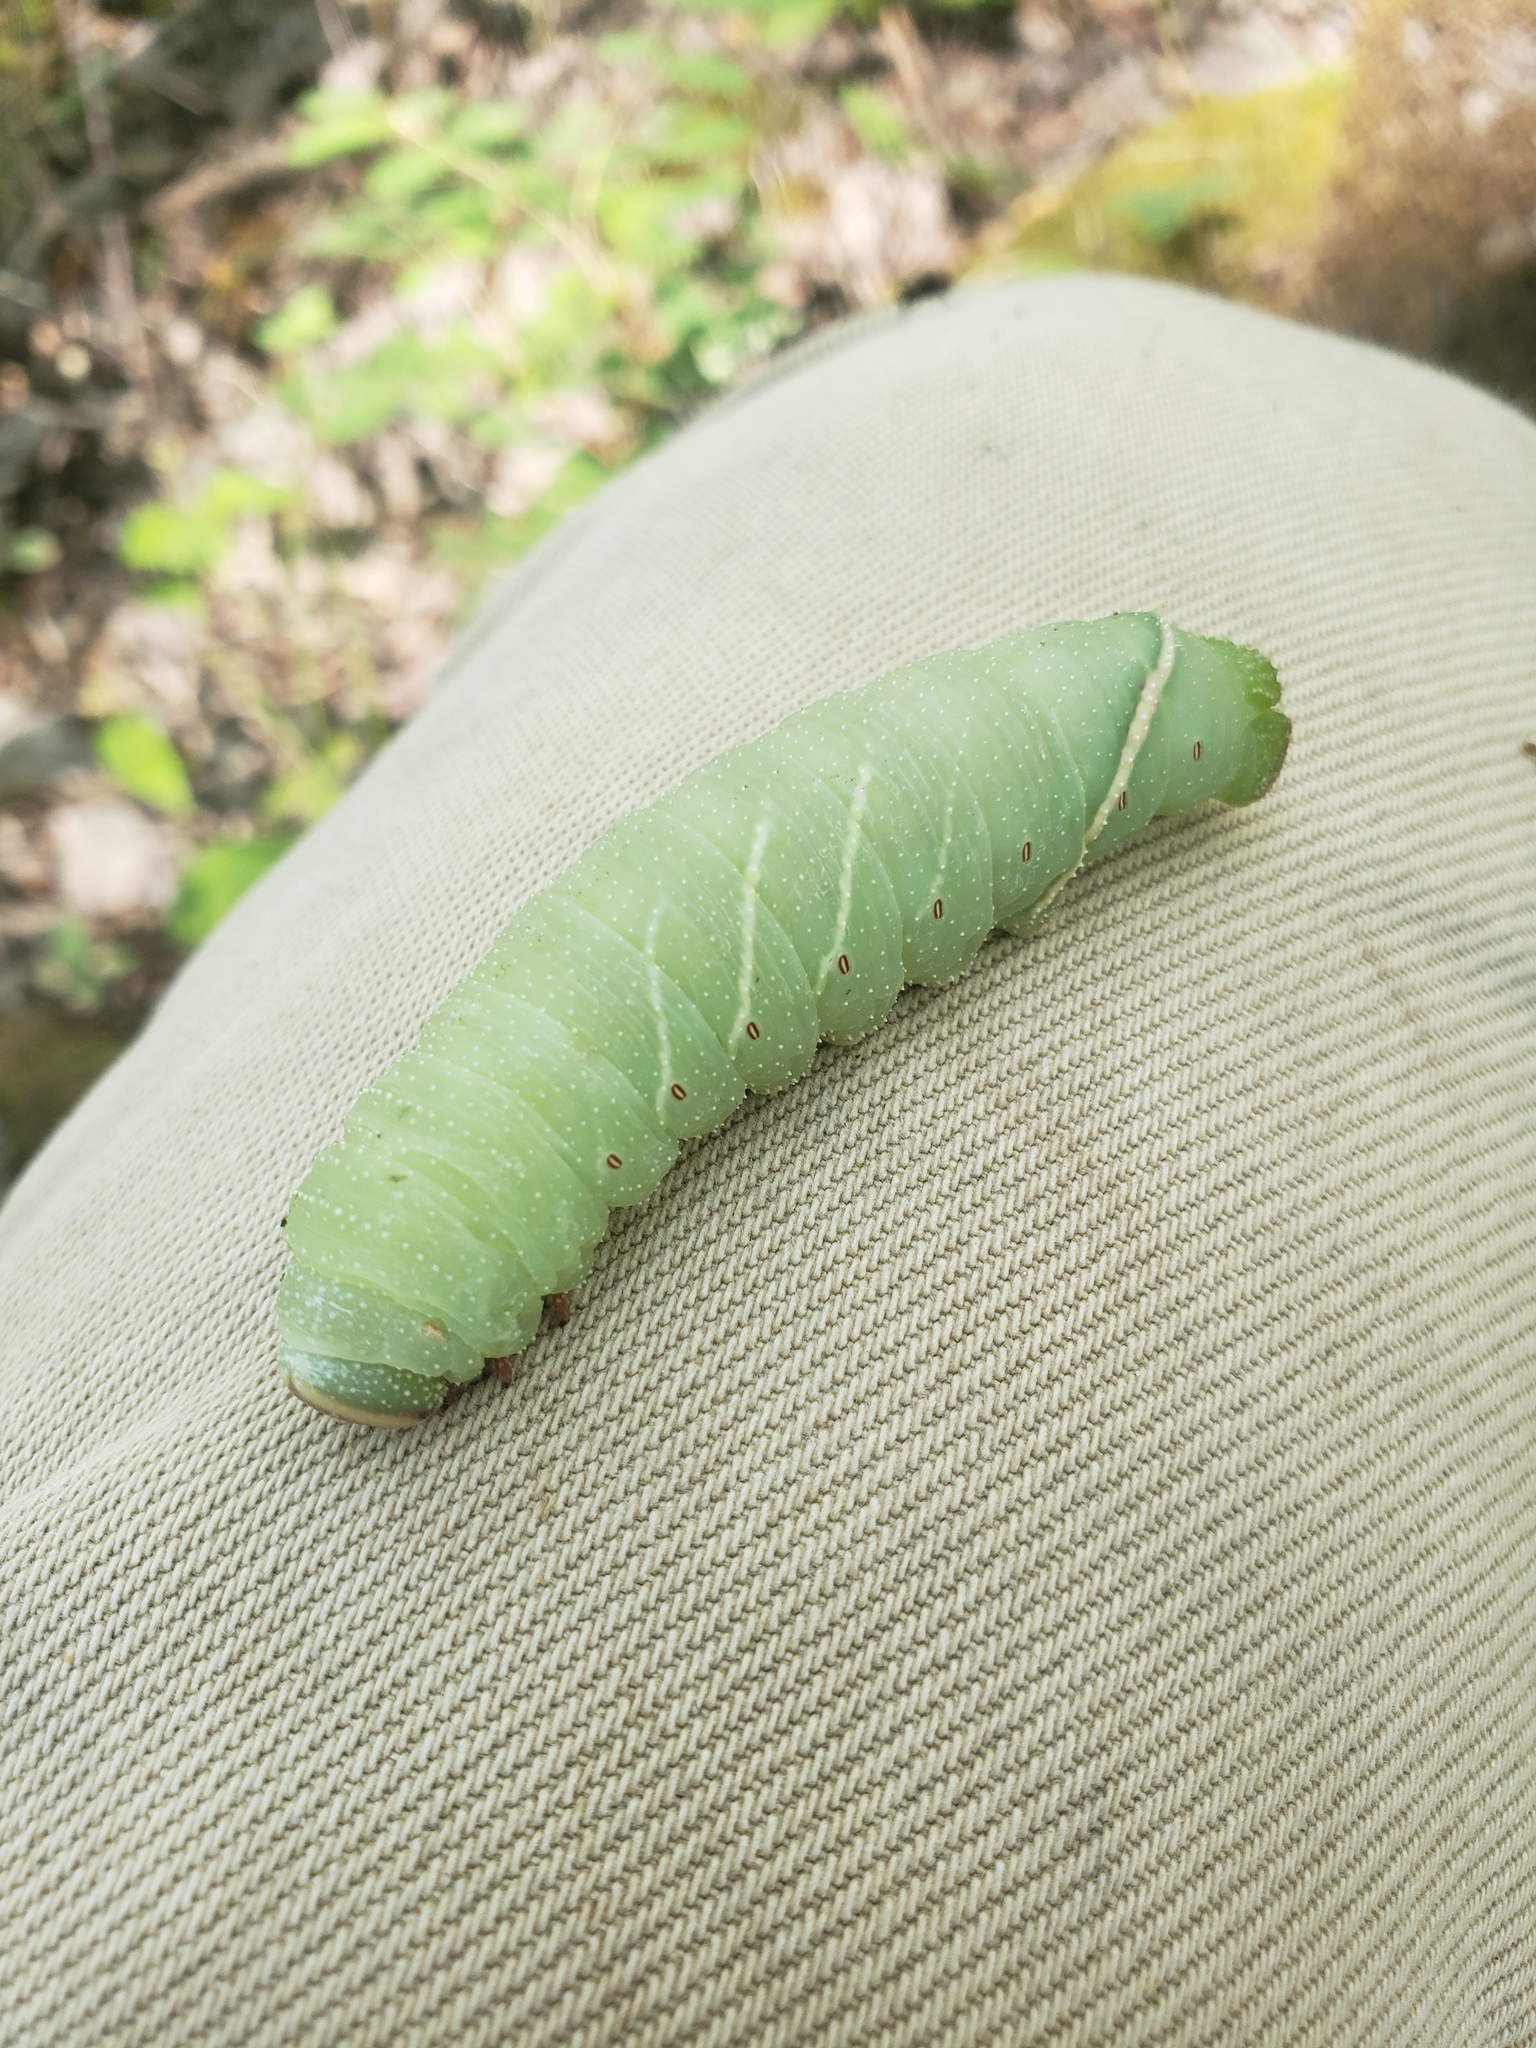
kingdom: Animalia
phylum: Arthropoda
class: Insecta
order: Lepidoptera
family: Sphingidae
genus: Pachysphinx
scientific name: Pachysphinx modesta
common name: Big poplar sphinx
